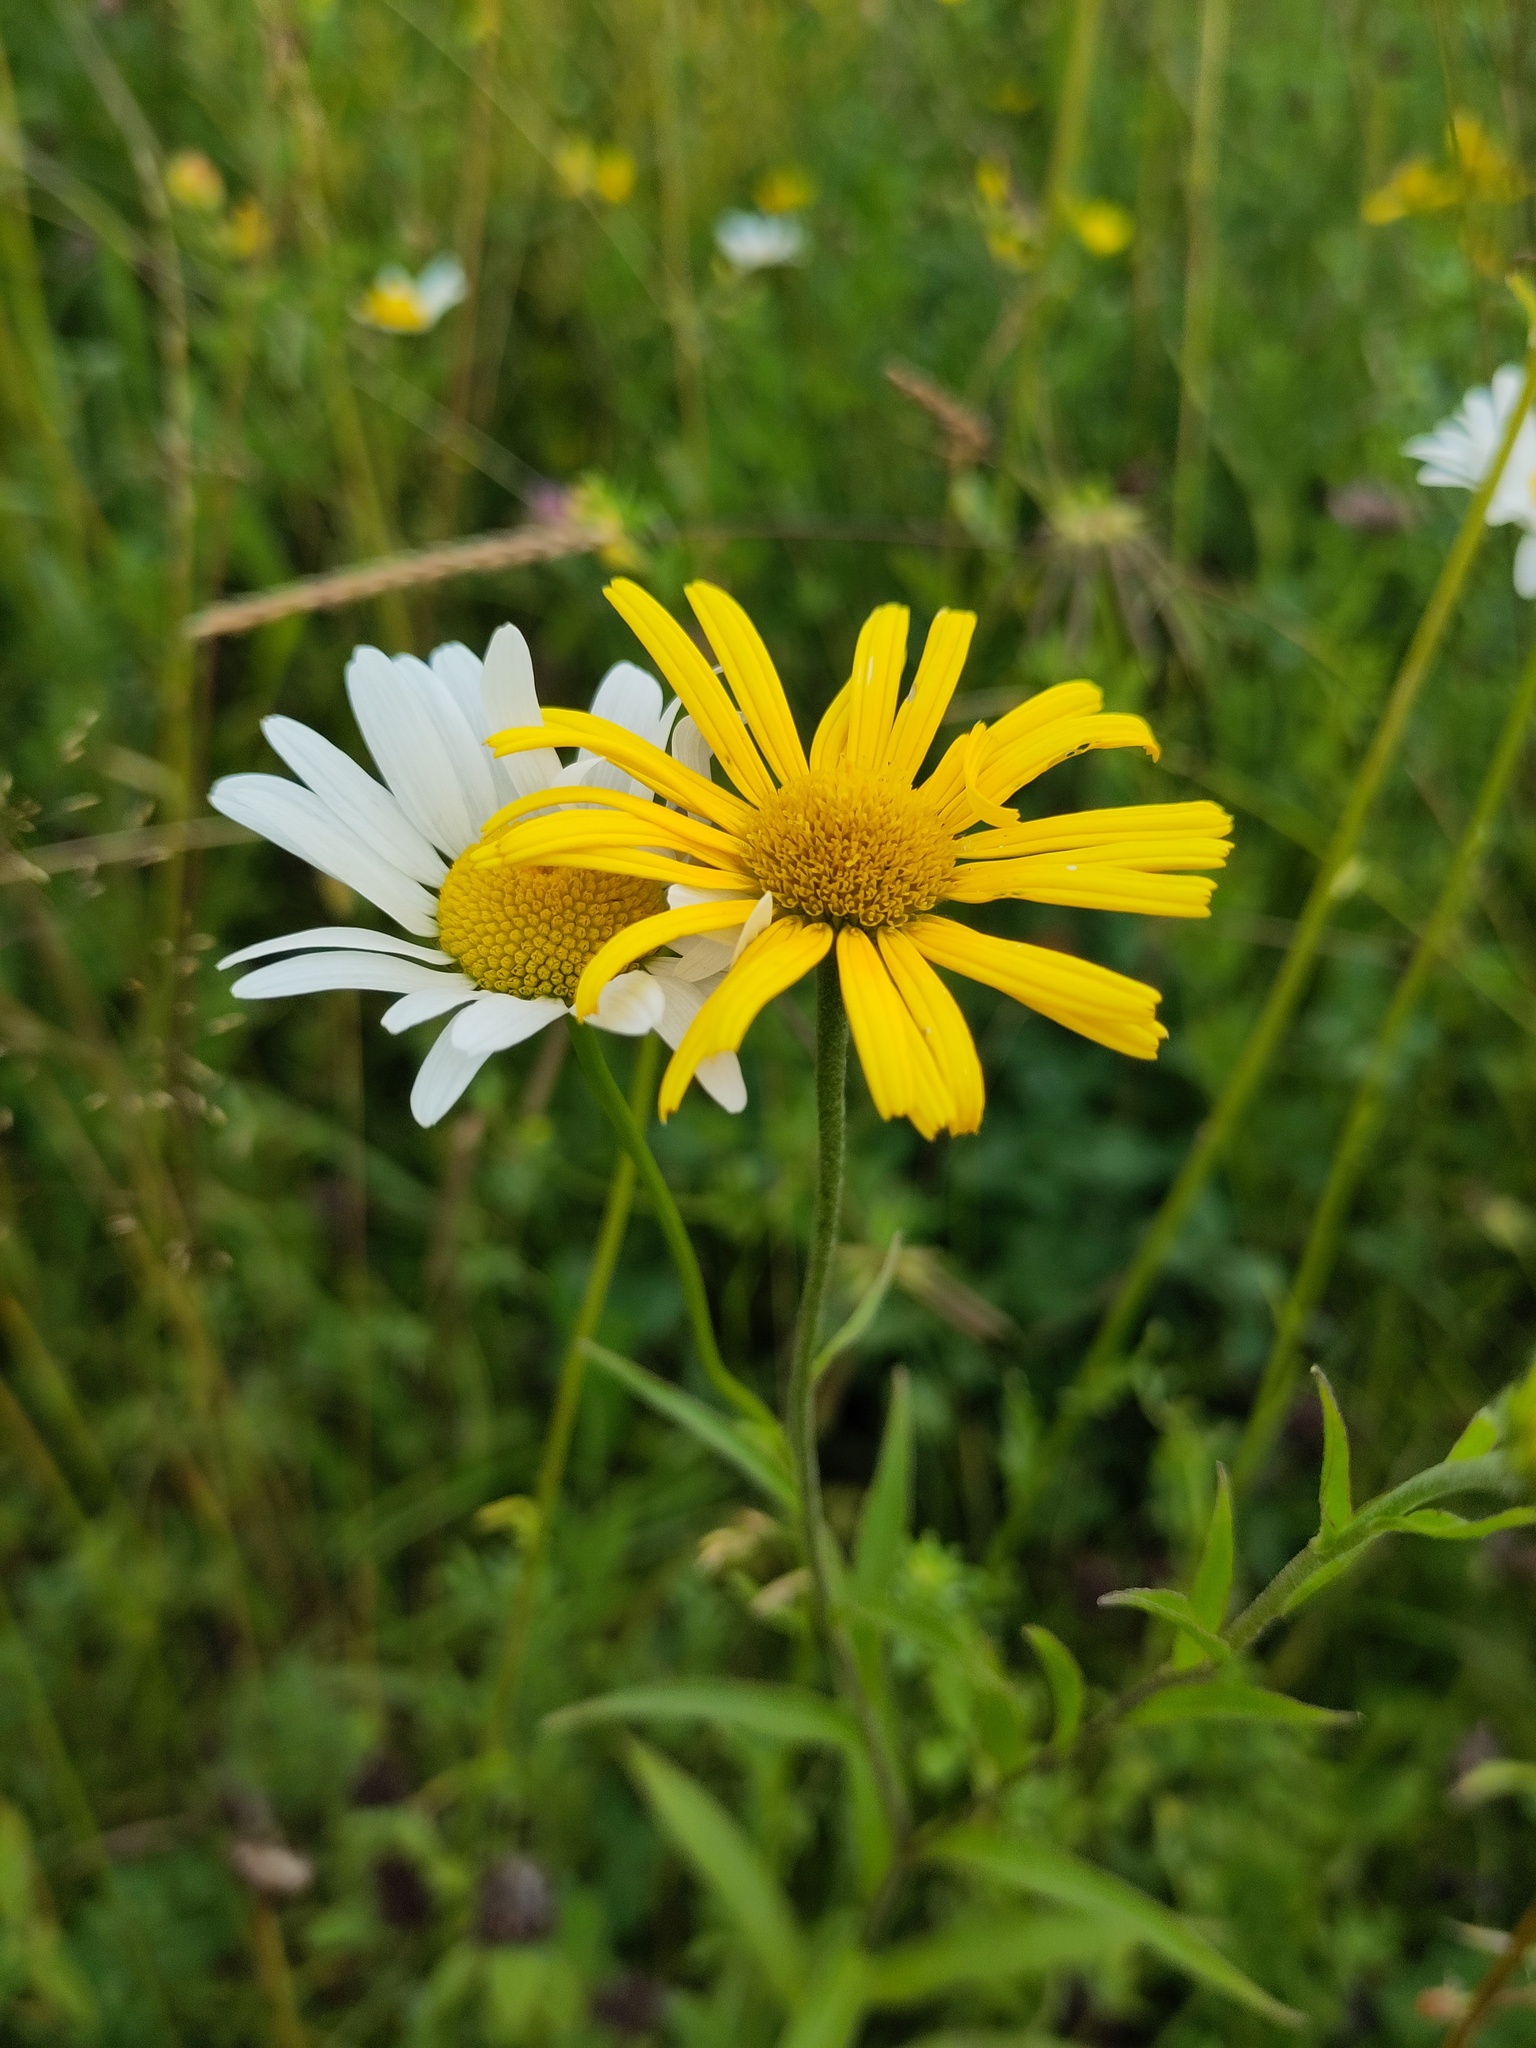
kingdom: Plantae
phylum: Tracheophyta
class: Magnoliopsida
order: Asterales
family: Asteraceae
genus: Buphthalmum
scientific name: Buphthalmum salicifolium
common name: Willow-leaved yellow-oxeye
